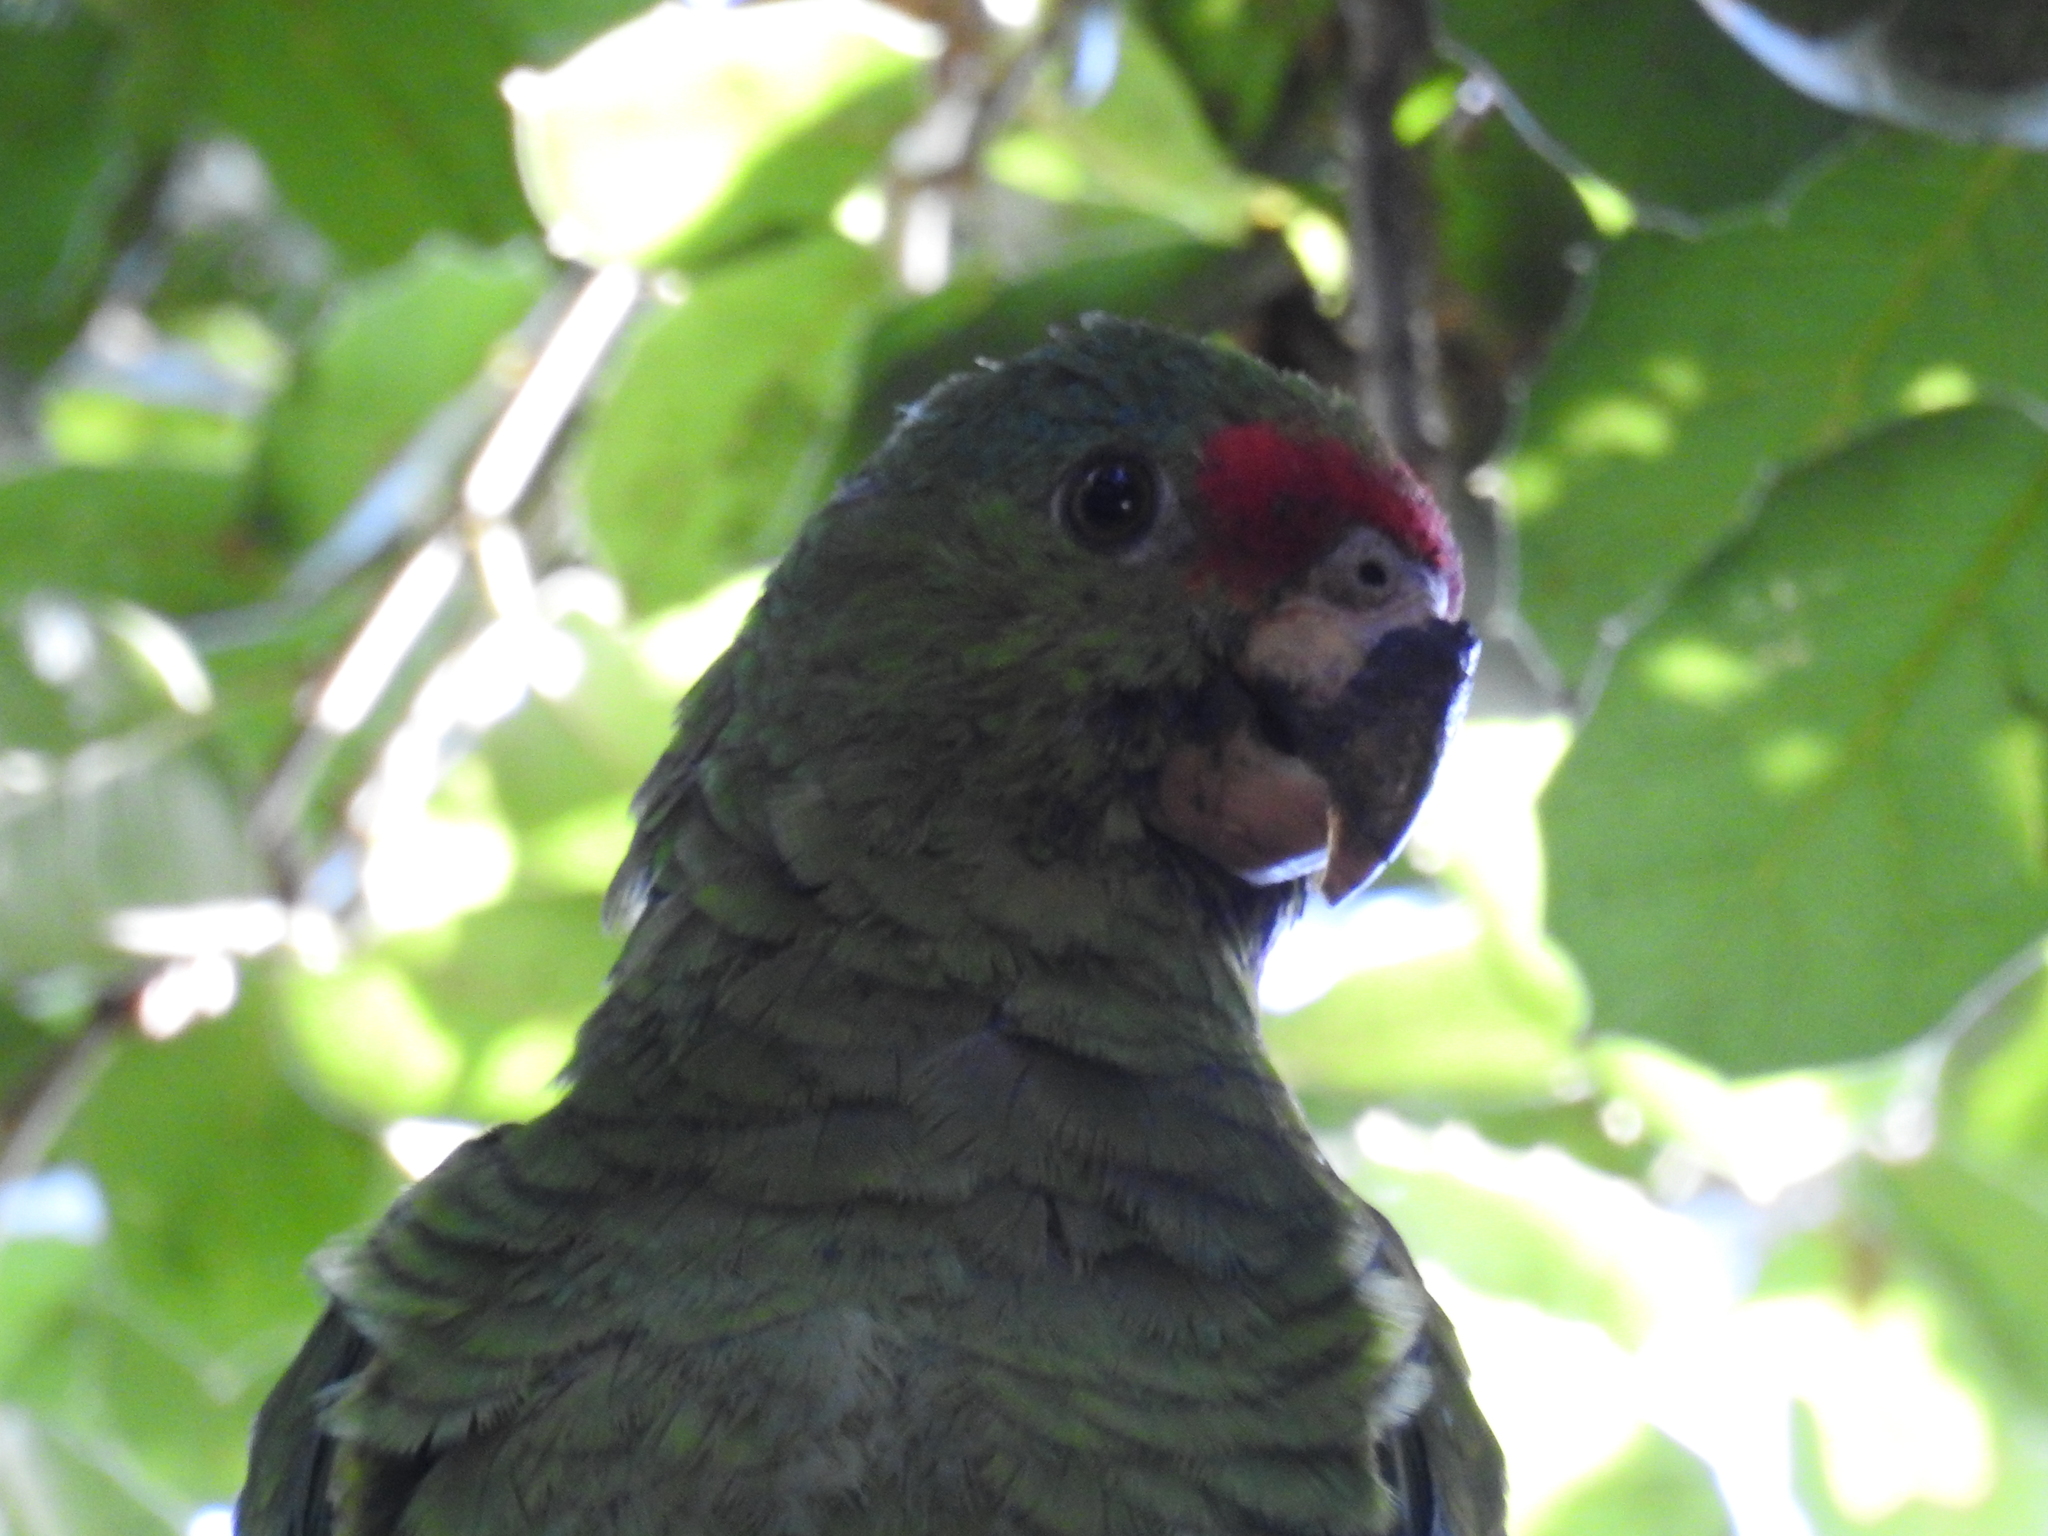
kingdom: Animalia
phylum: Chordata
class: Aves
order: Psittaciformes
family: Psittacidae
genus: Amazona
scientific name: Amazona viridigenalis
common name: Red-crowned amazon
